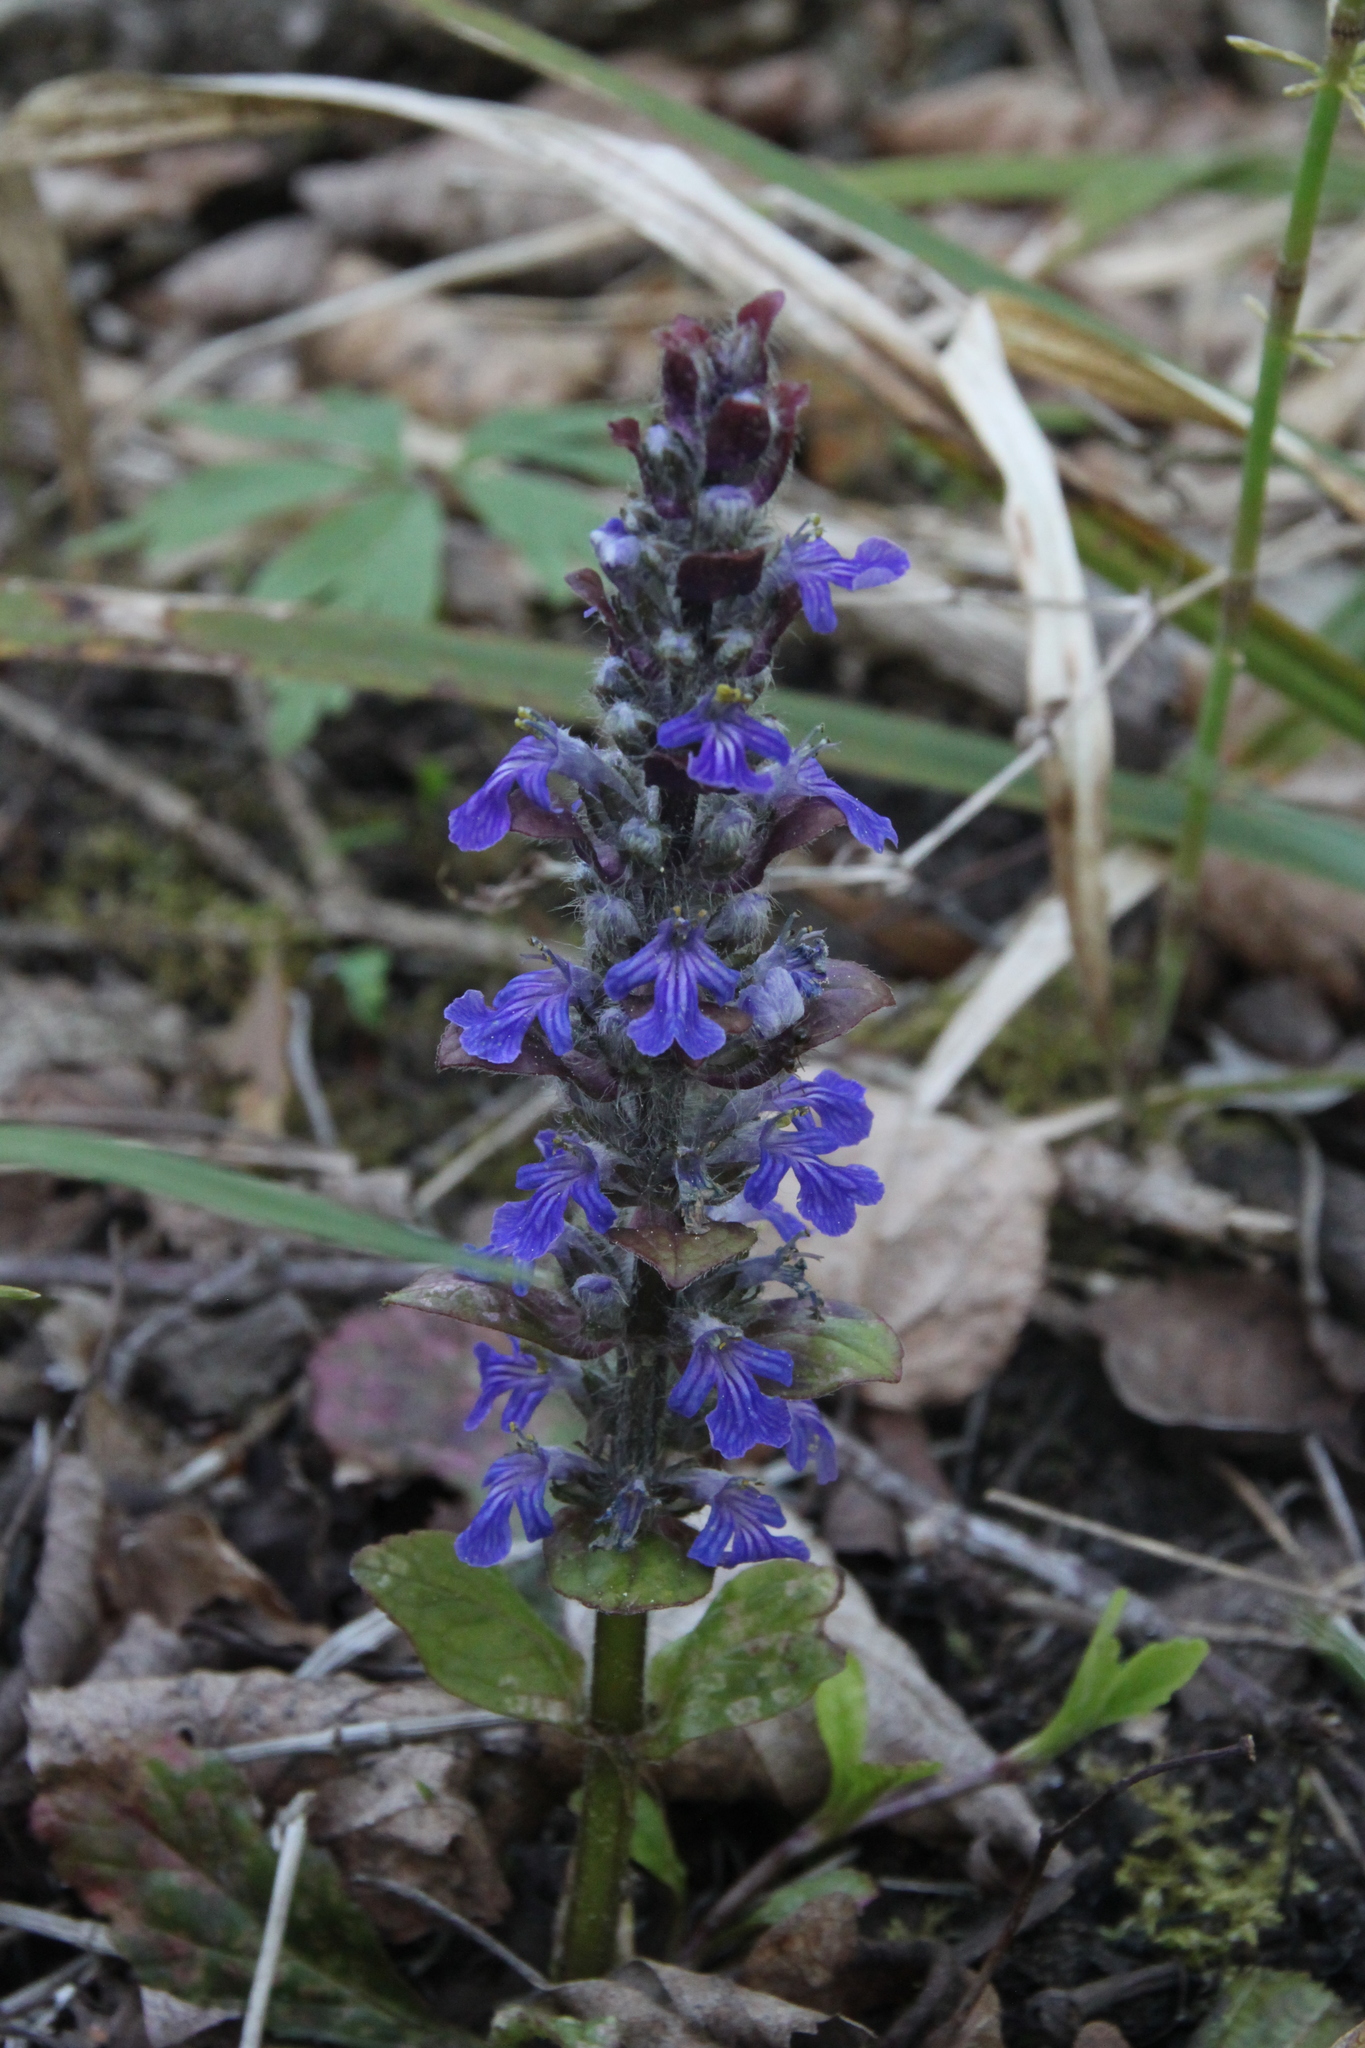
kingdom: Plantae
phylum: Tracheophyta
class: Magnoliopsida
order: Lamiales
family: Lamiaceae
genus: Ajuga
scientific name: Ajuga reptans
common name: Bugle
